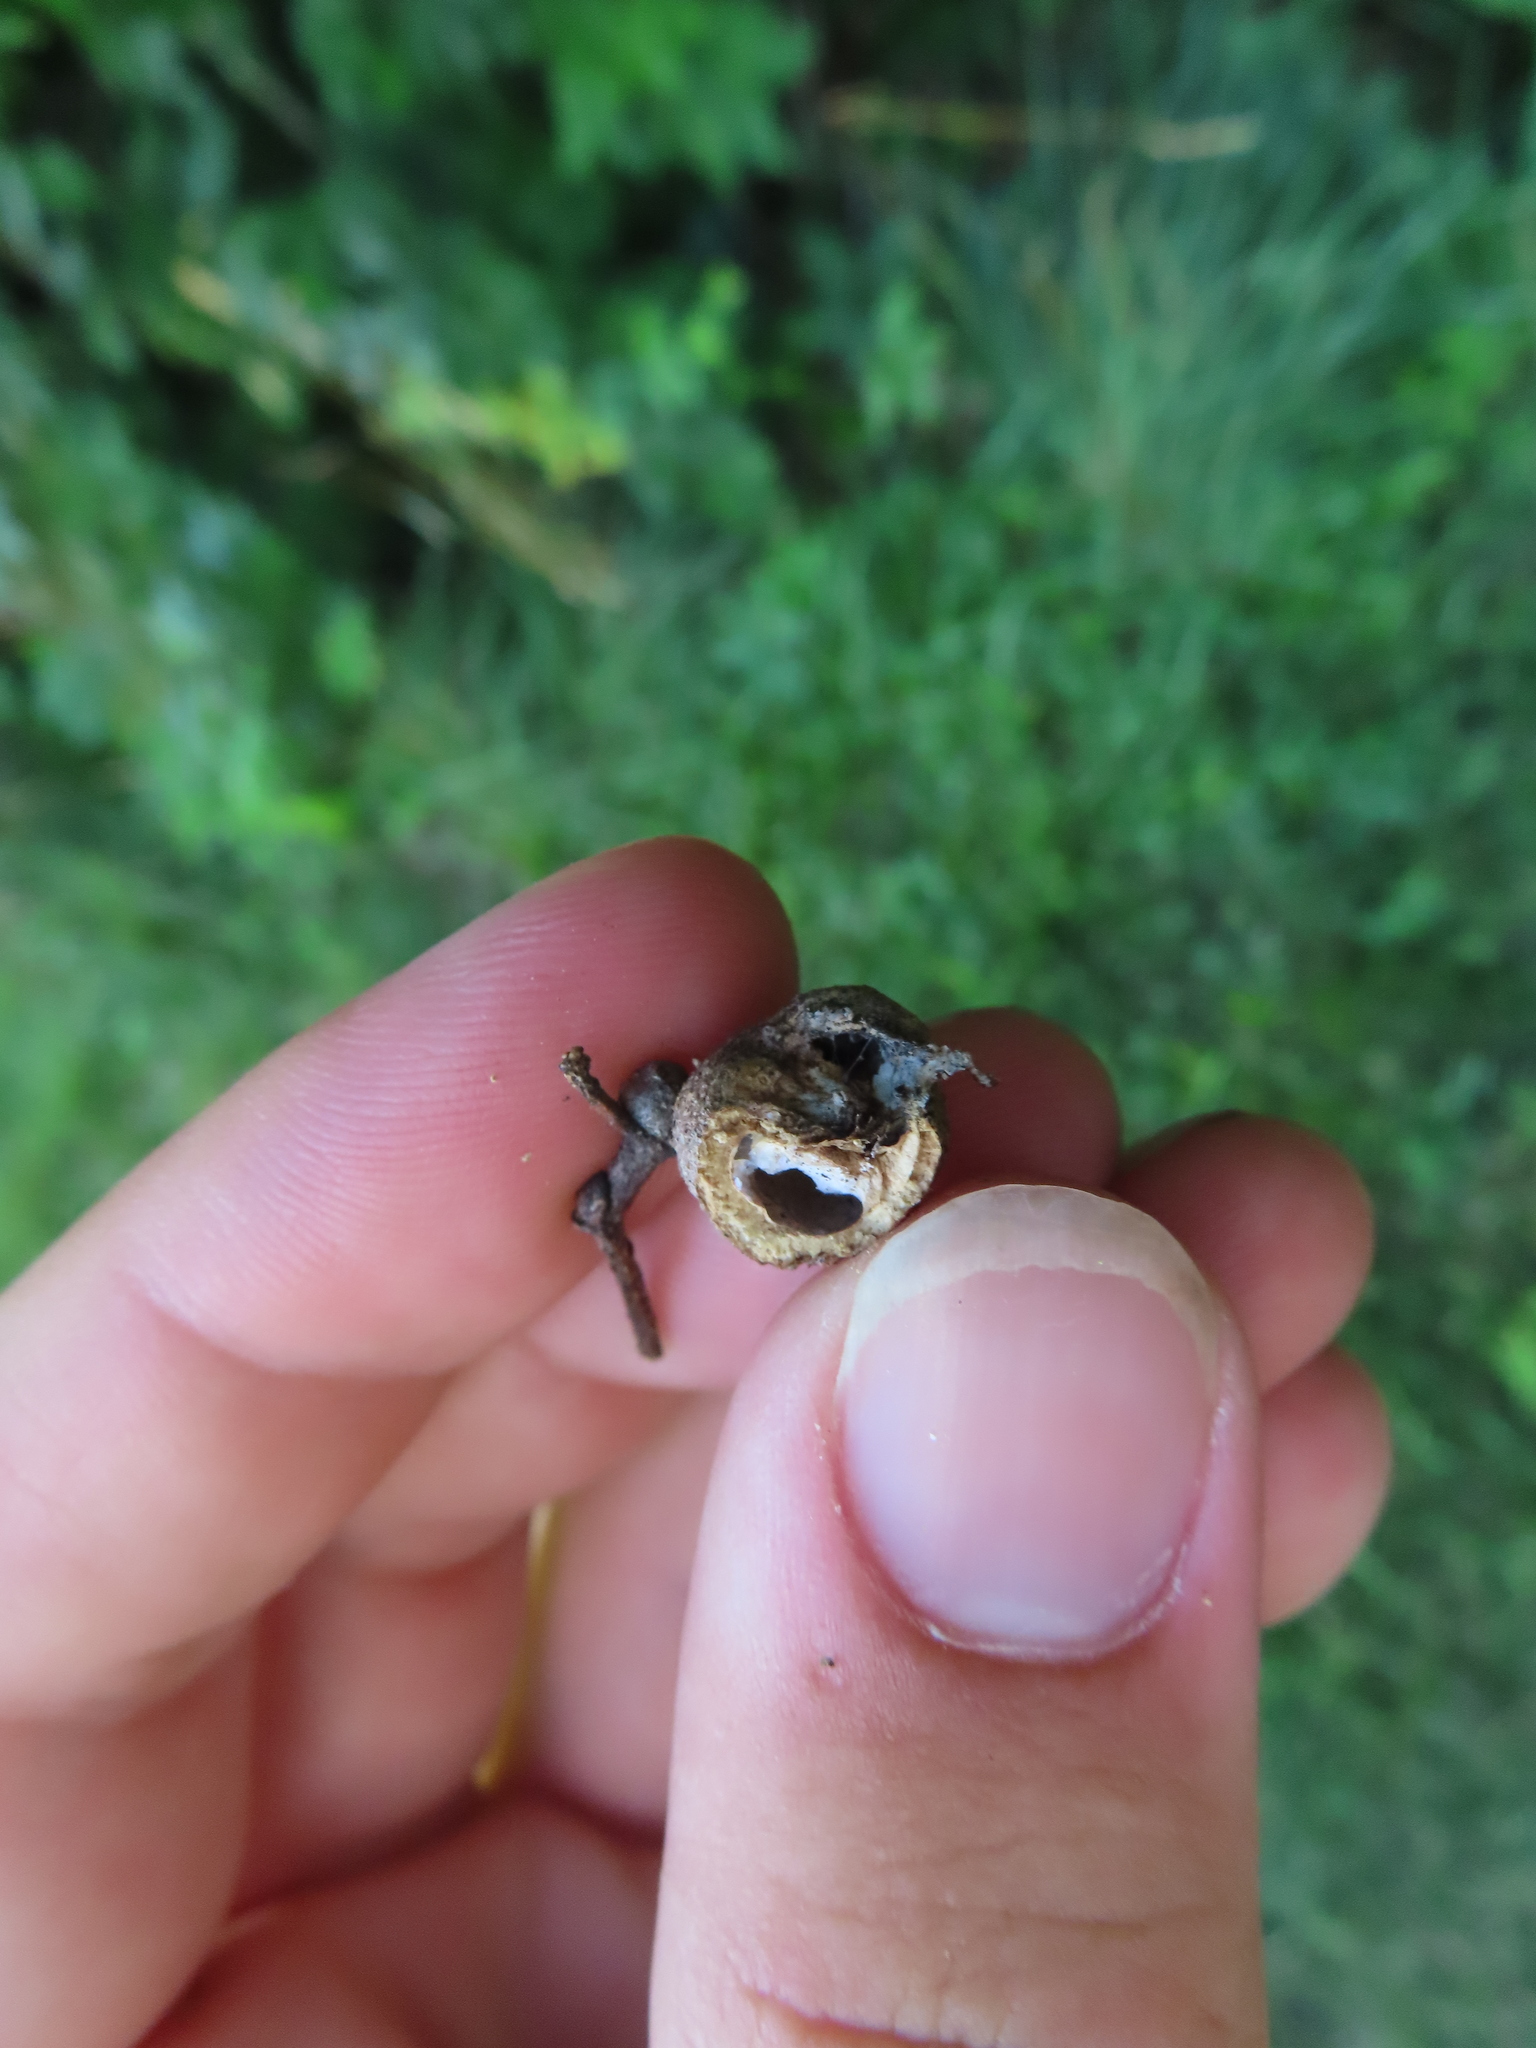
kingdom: Animalia
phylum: Arthropoda
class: Insecta
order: Hemiptera
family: Aphalaridae
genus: Pachypsylla
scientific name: Pachypsylla venusta
